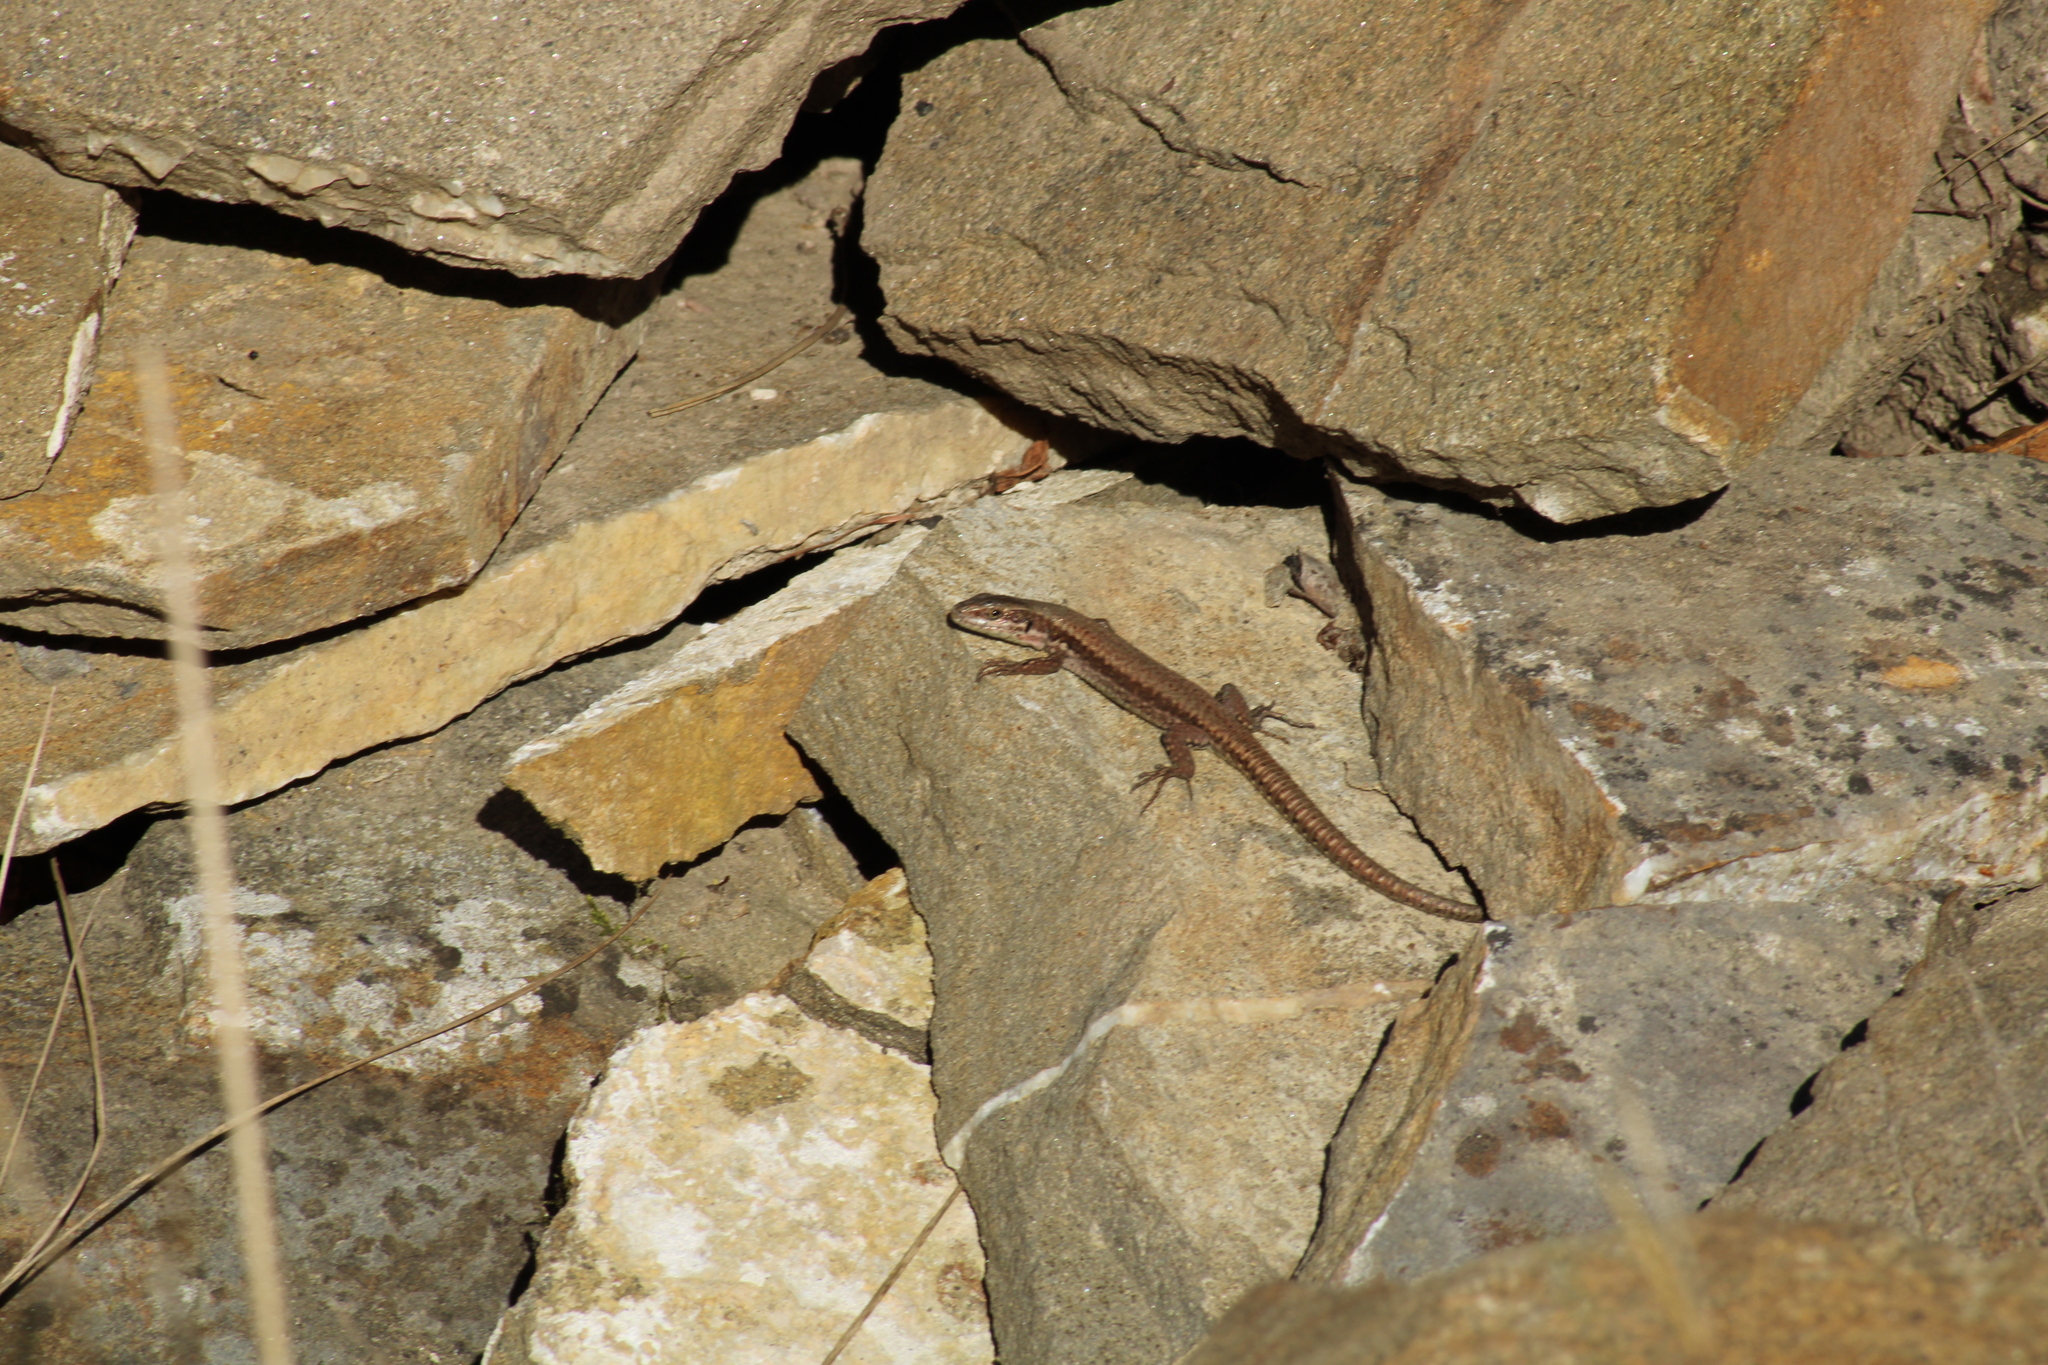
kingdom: Animalia
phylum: Chordata
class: Squamata
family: Lacertidae
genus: Podarcis
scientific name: Podarcis muralis
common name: Common wall lizard
